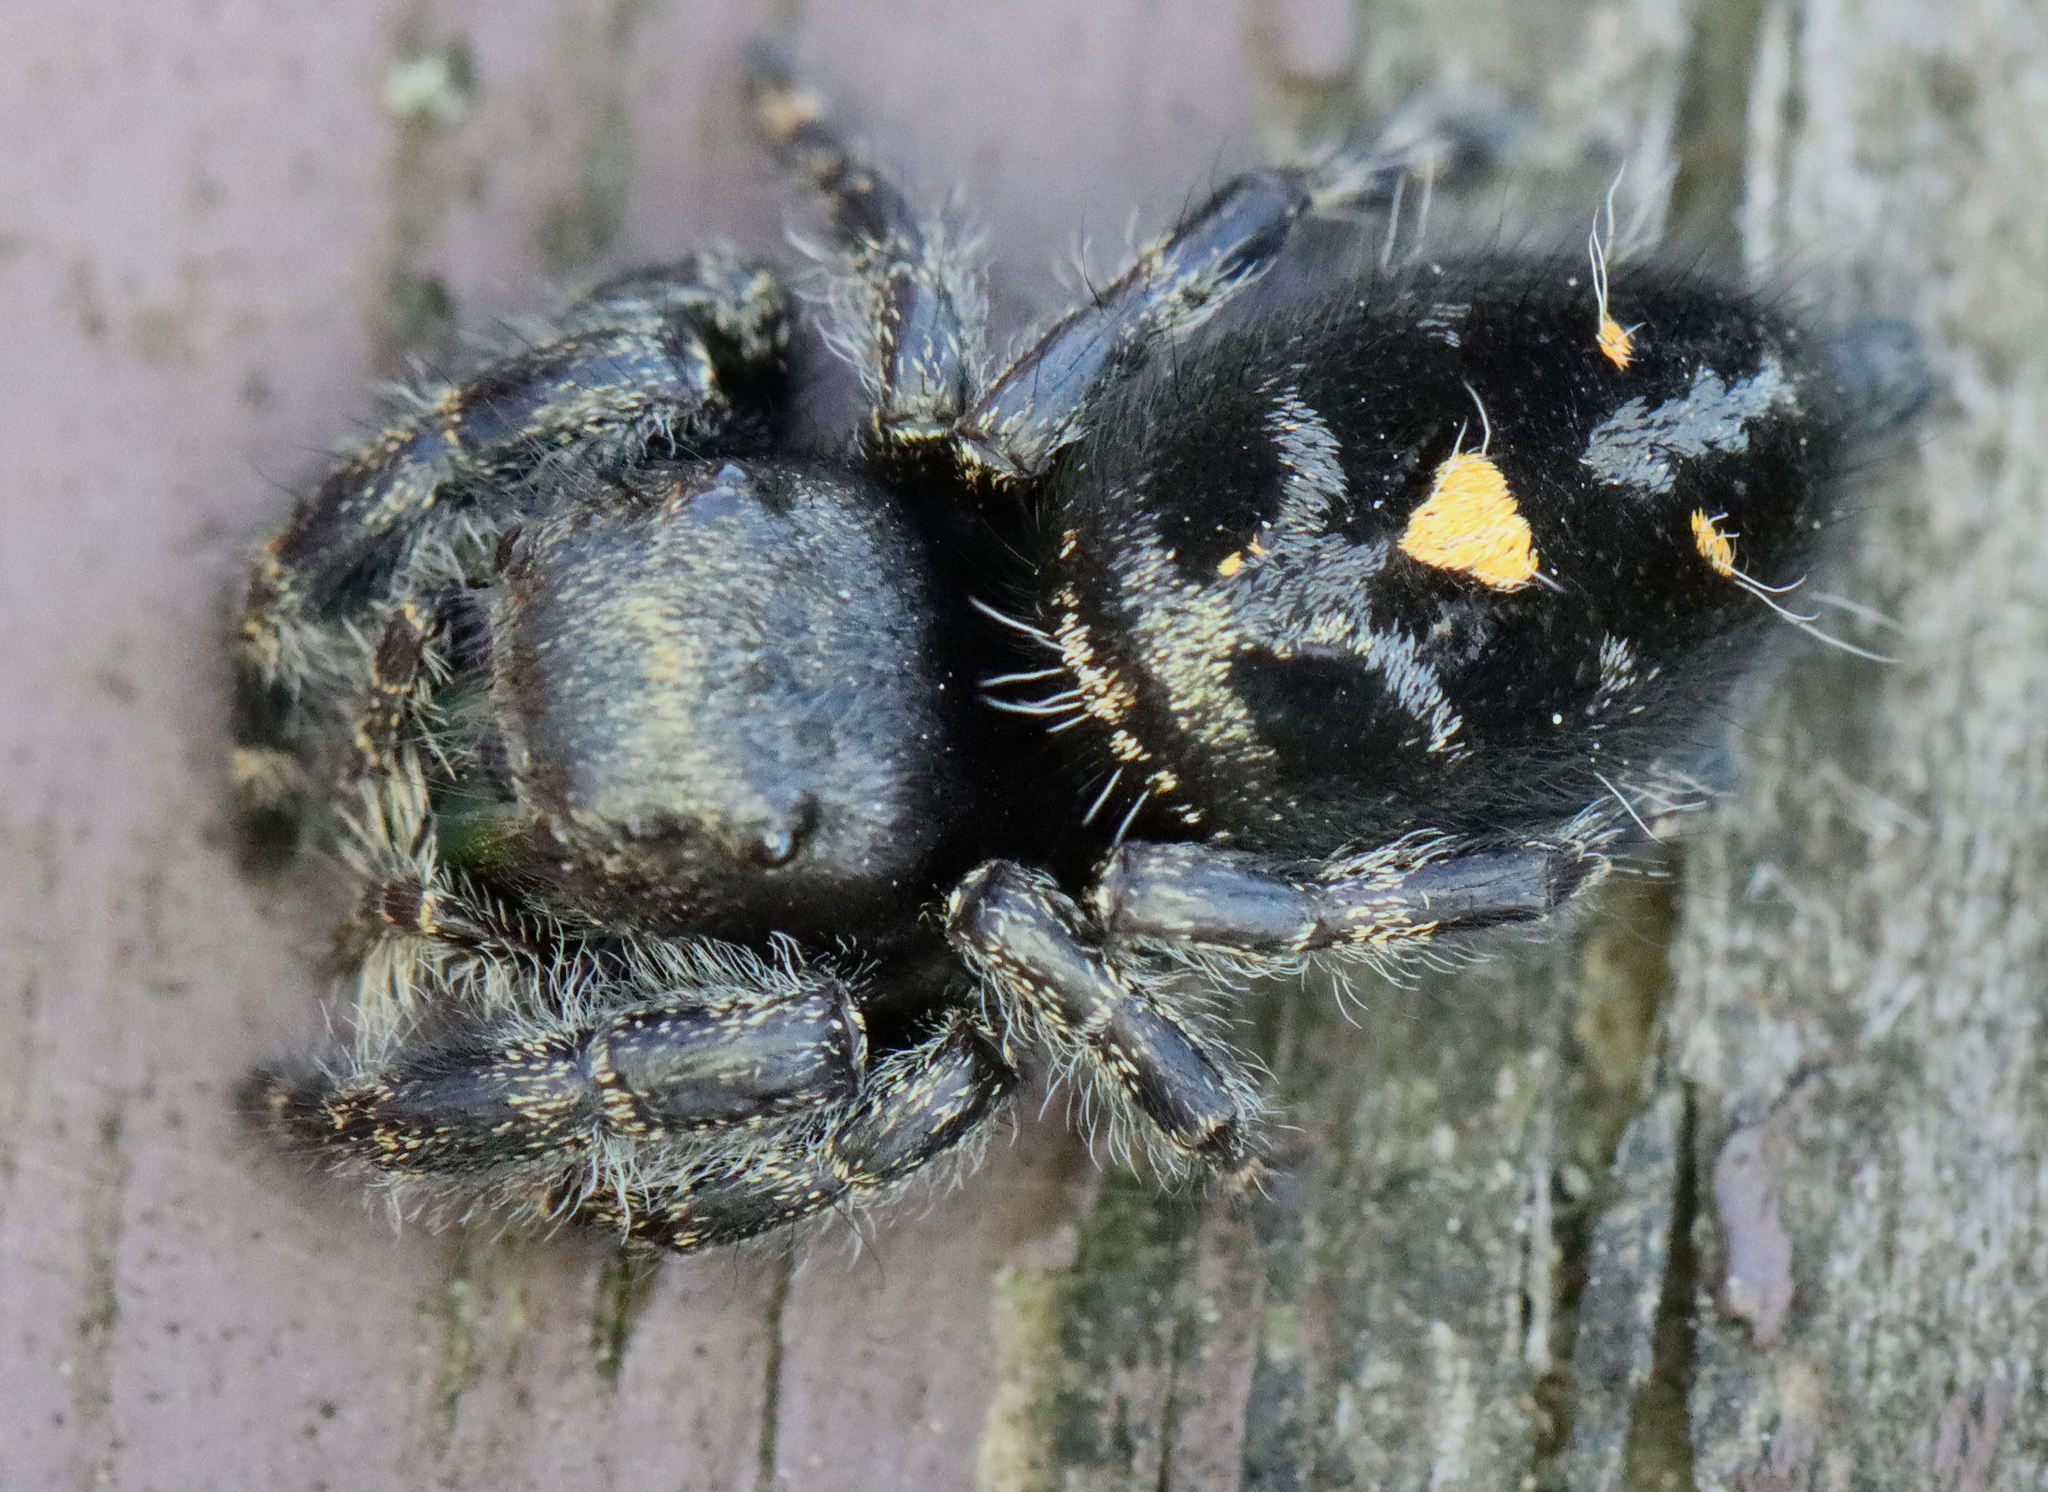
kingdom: Animalia
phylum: Arthropoda
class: Arachnida
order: Araneae
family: Salticidae
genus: Phidippus
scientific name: Phidippus audax
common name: Bold jumper
